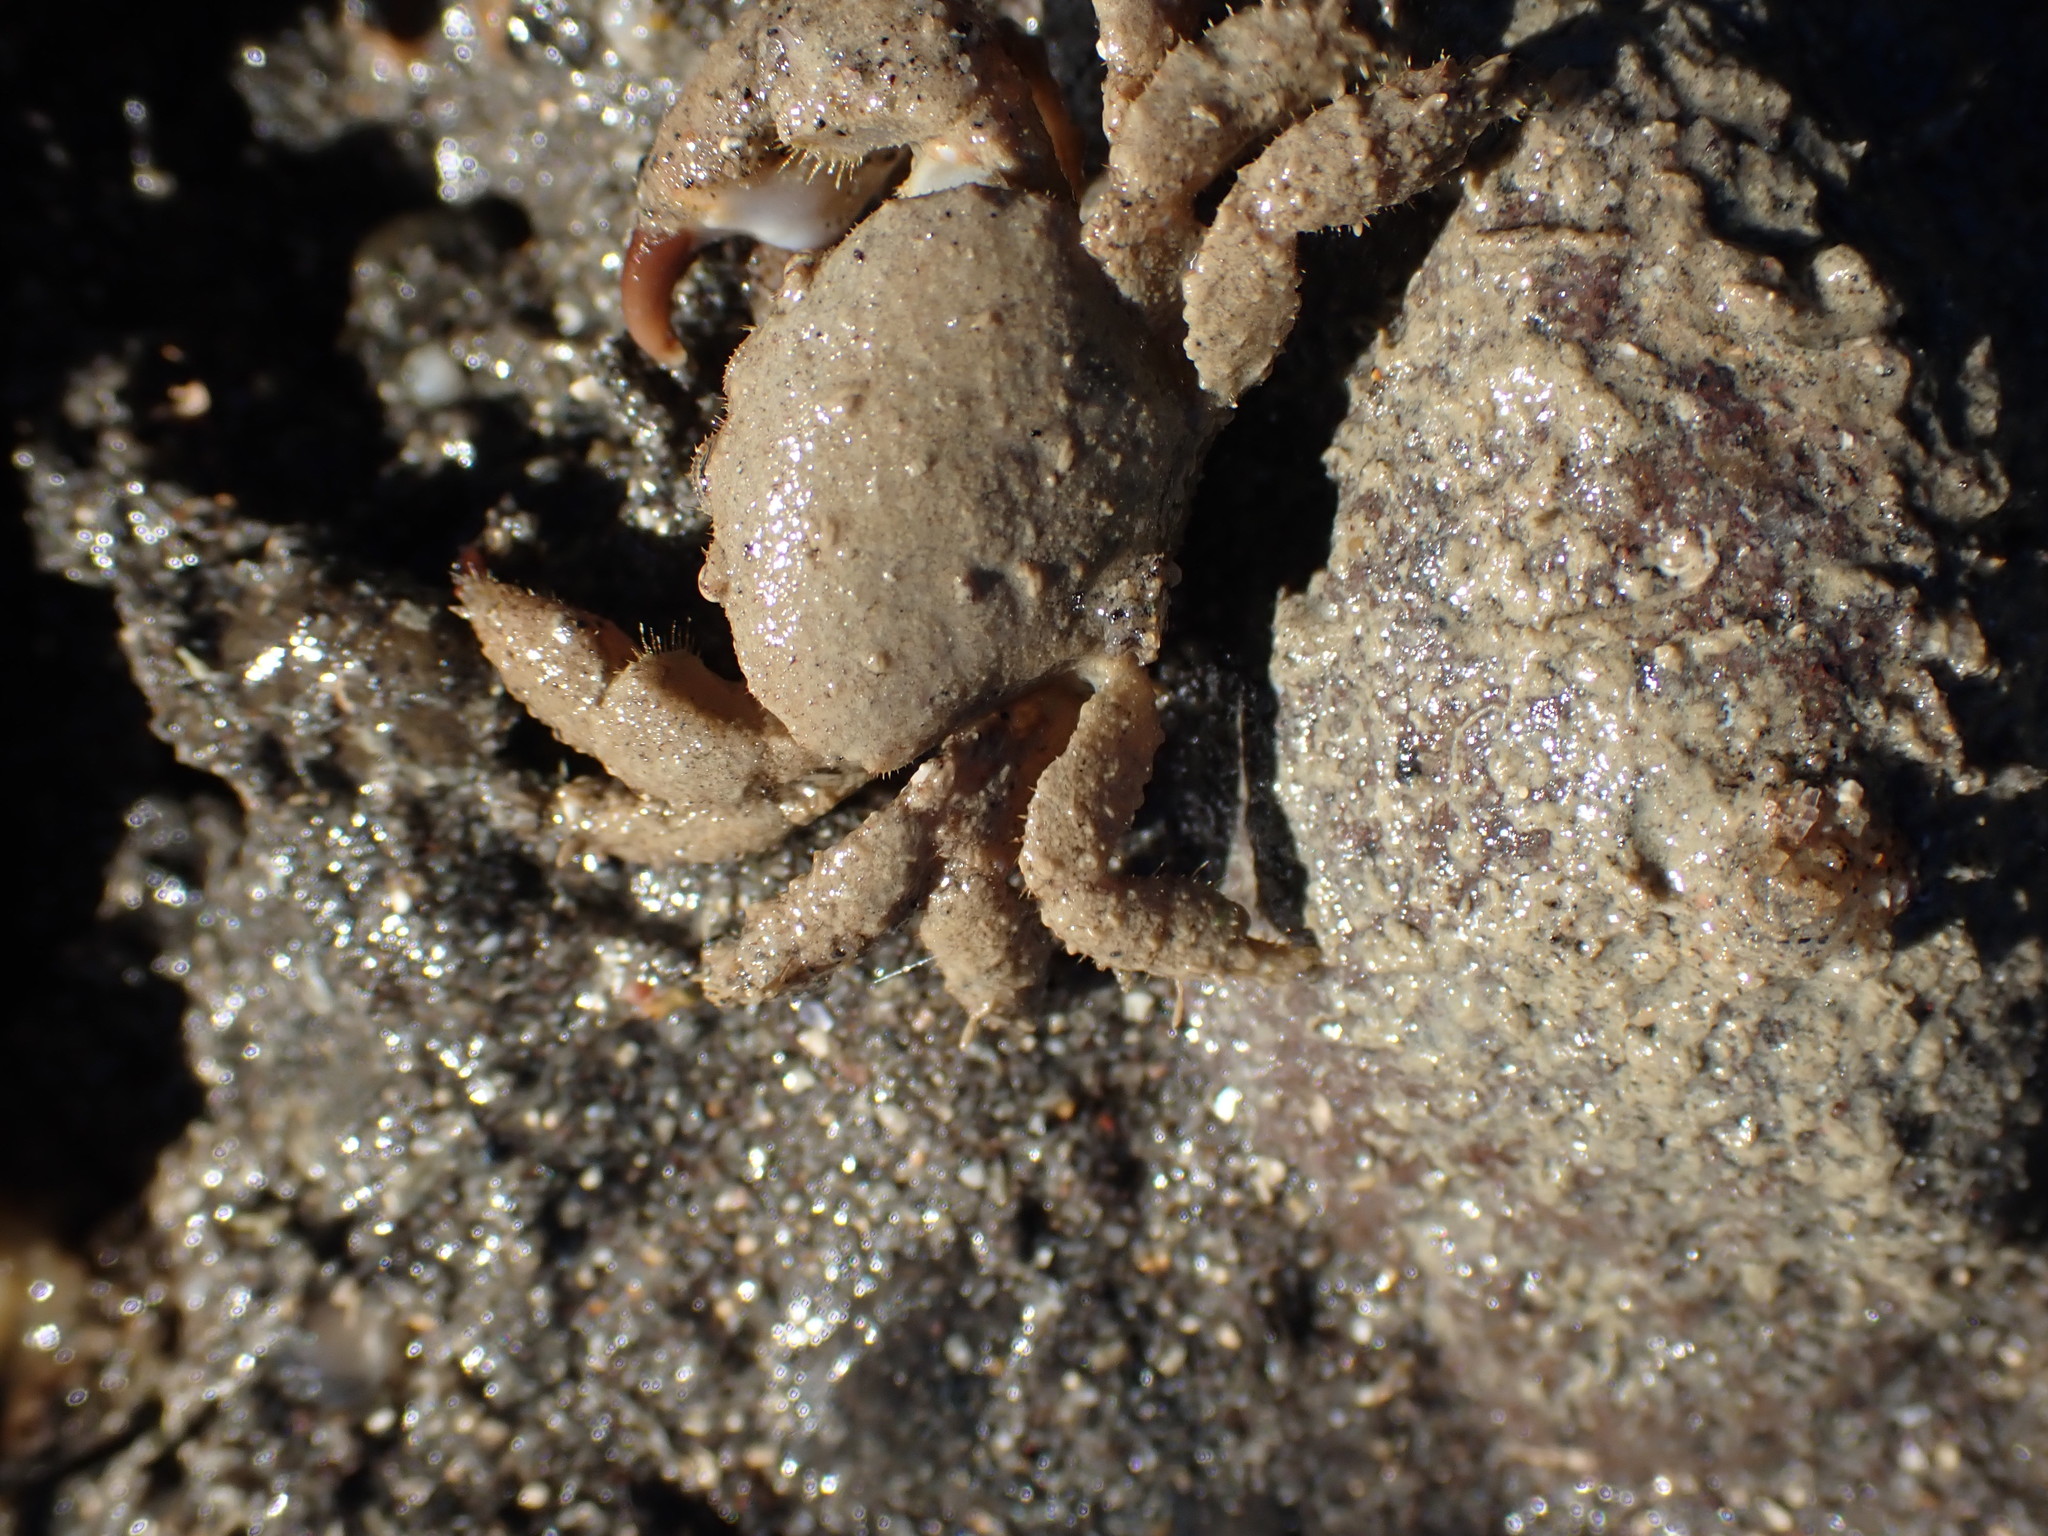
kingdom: Animalia
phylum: Arthropoda
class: Malacostraca
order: Decapoda
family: Pilumnidae
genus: Pilumnus
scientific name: Pilumnus lumpinus
